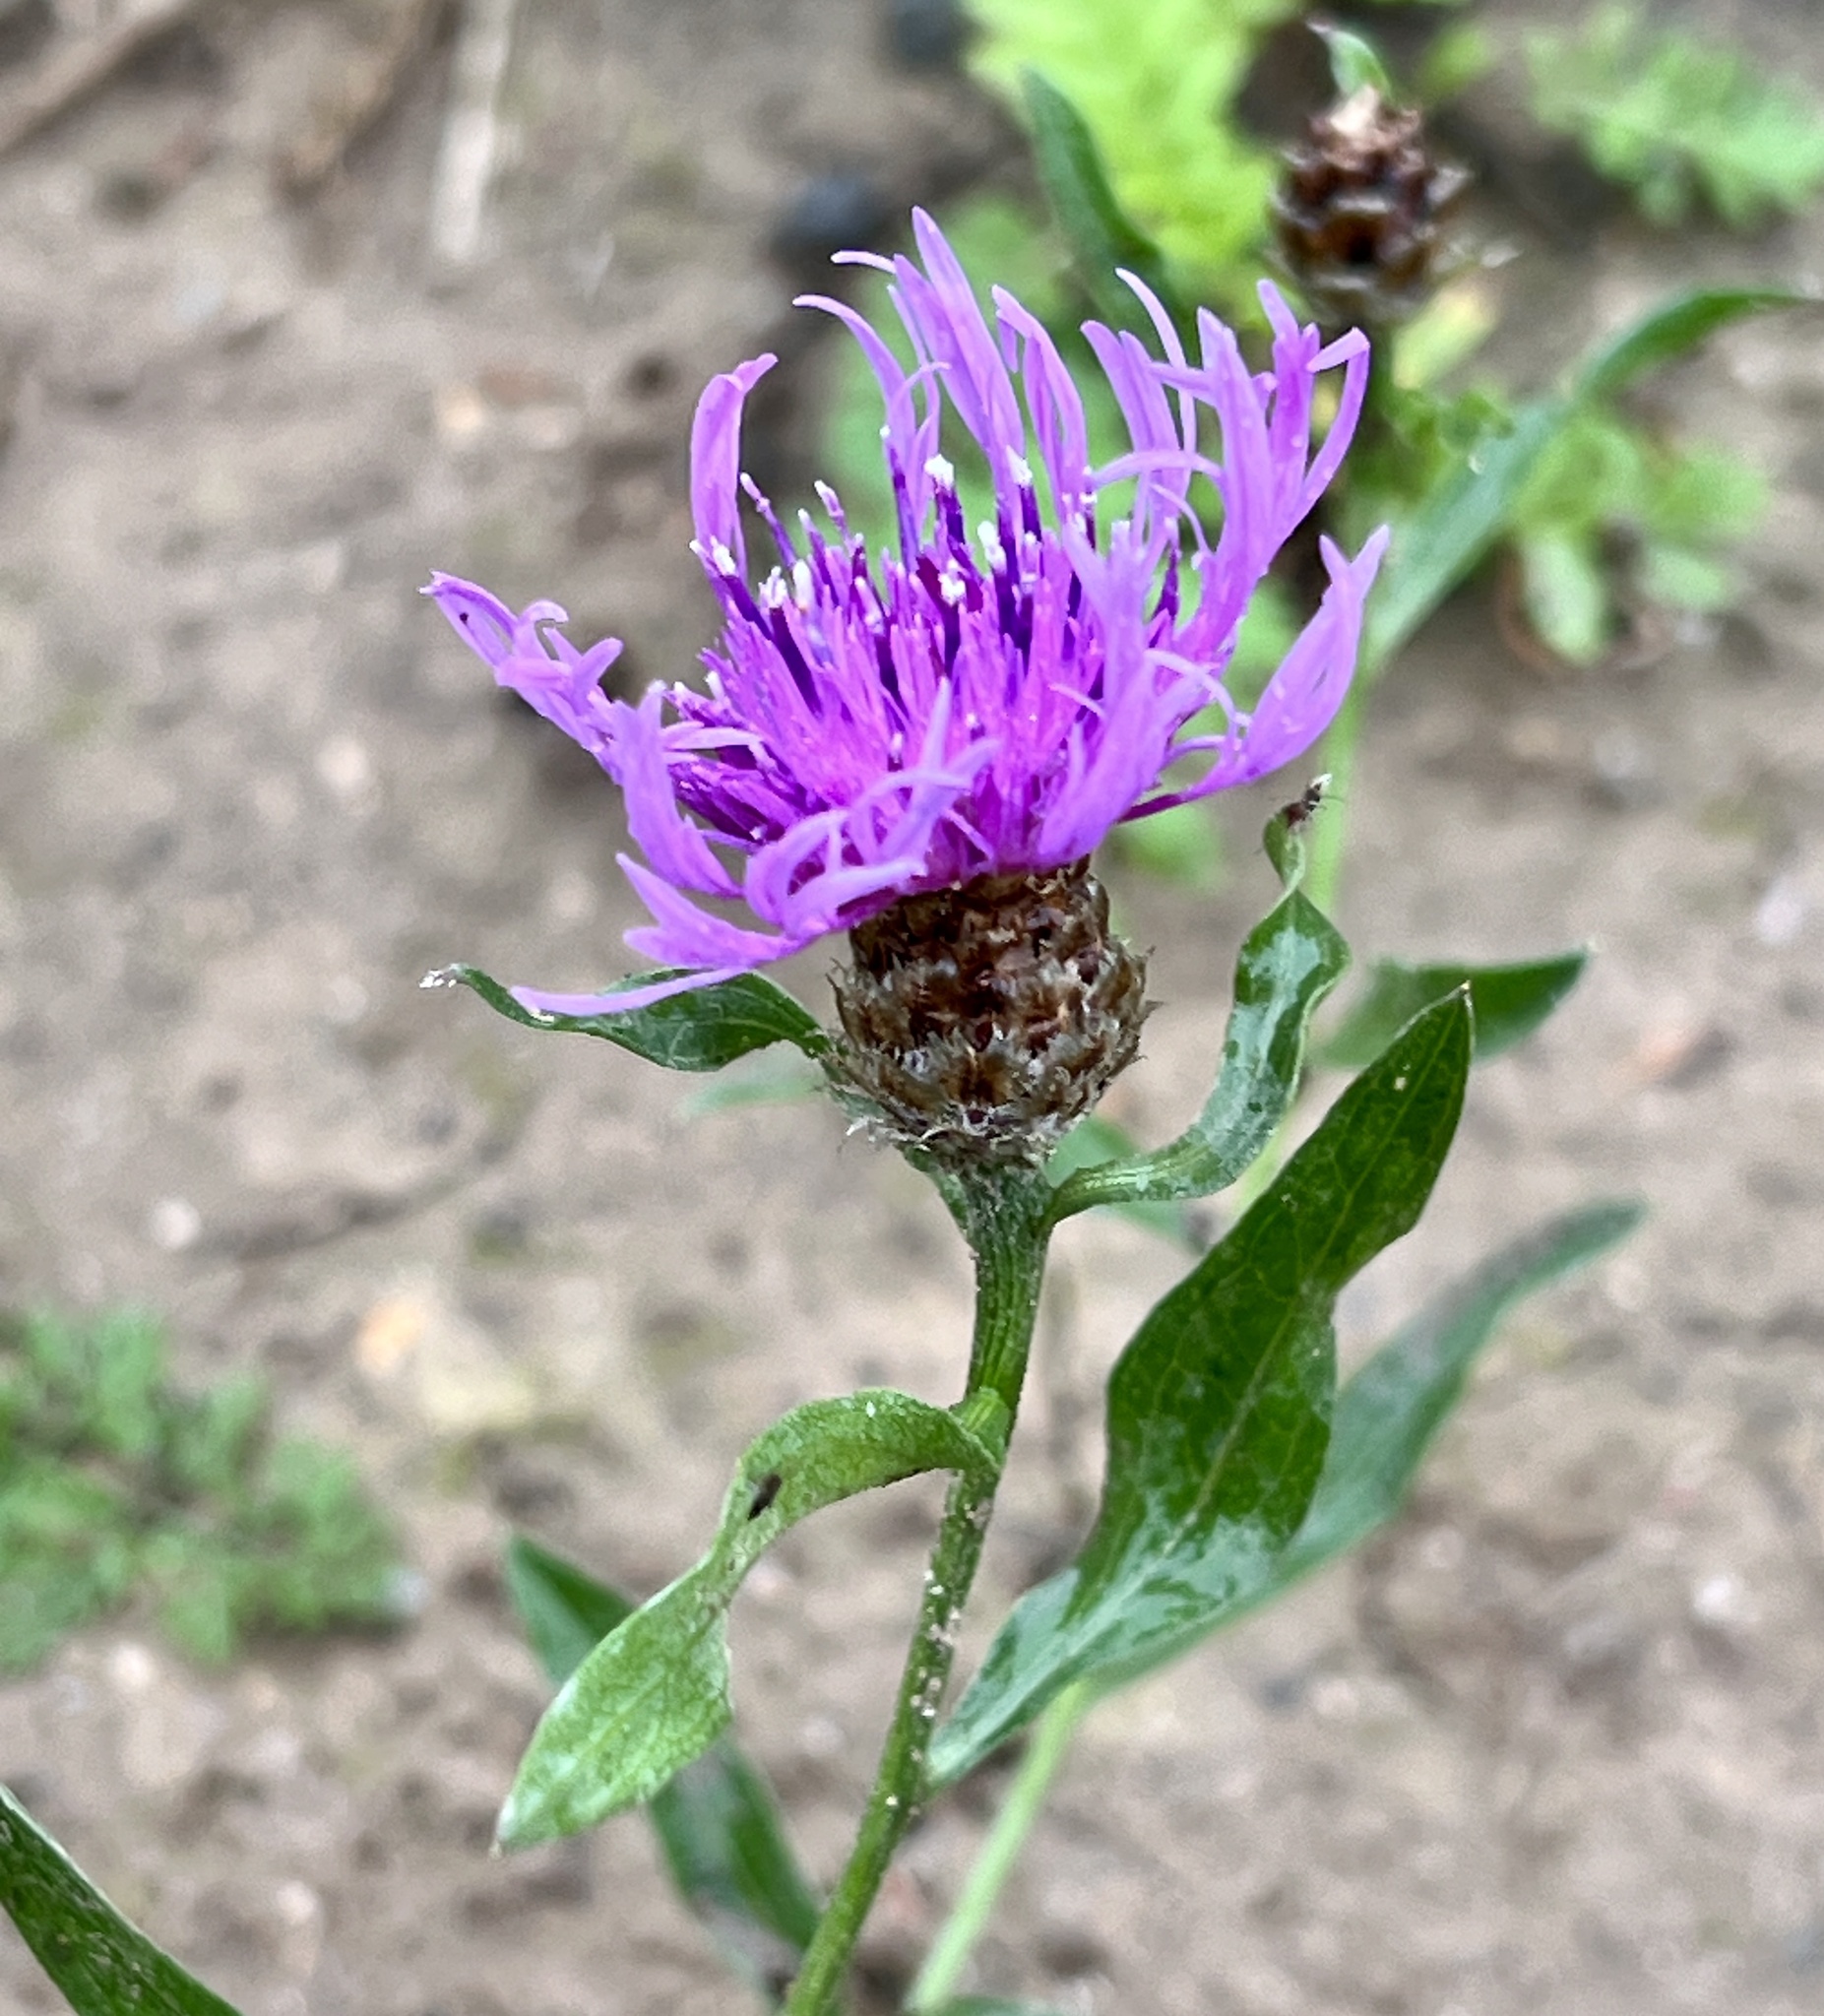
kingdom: Plantae
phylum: Tracheophyta
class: Magnoliopsida
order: Asterales
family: Asteraceae
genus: Centaurea
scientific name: Centaurea jacea
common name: Brown knapweed
